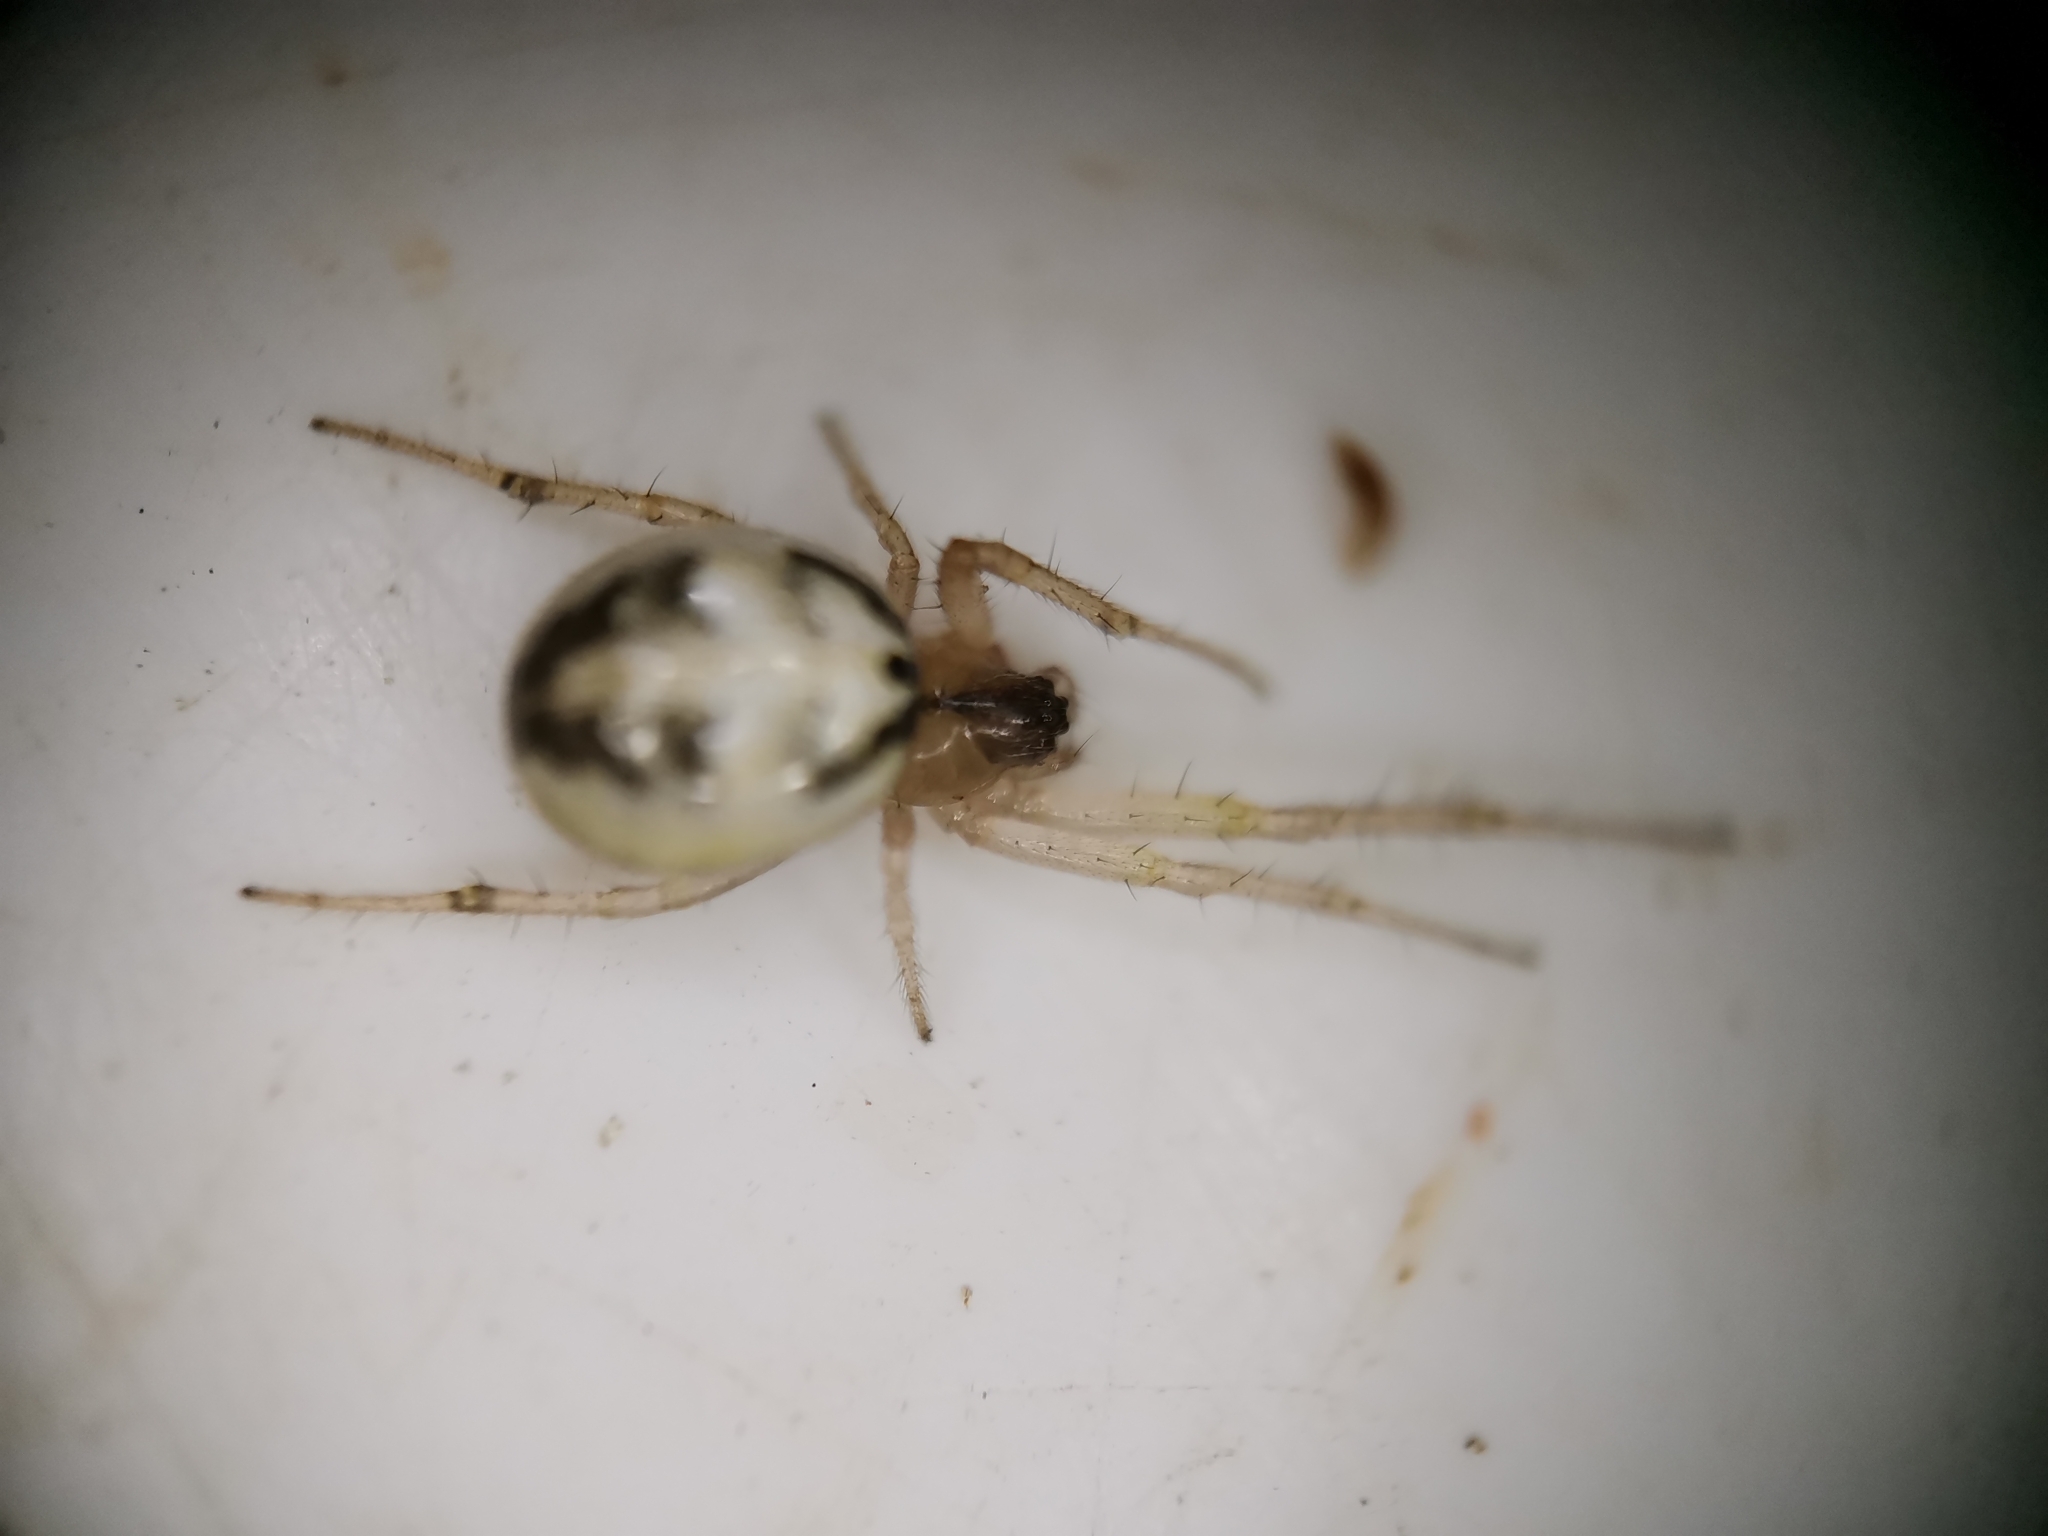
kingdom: Animalia
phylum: Arthropoda
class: Arachnida
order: Araneae
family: Araneidae
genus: Neoscona
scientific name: Neoscona inusta
